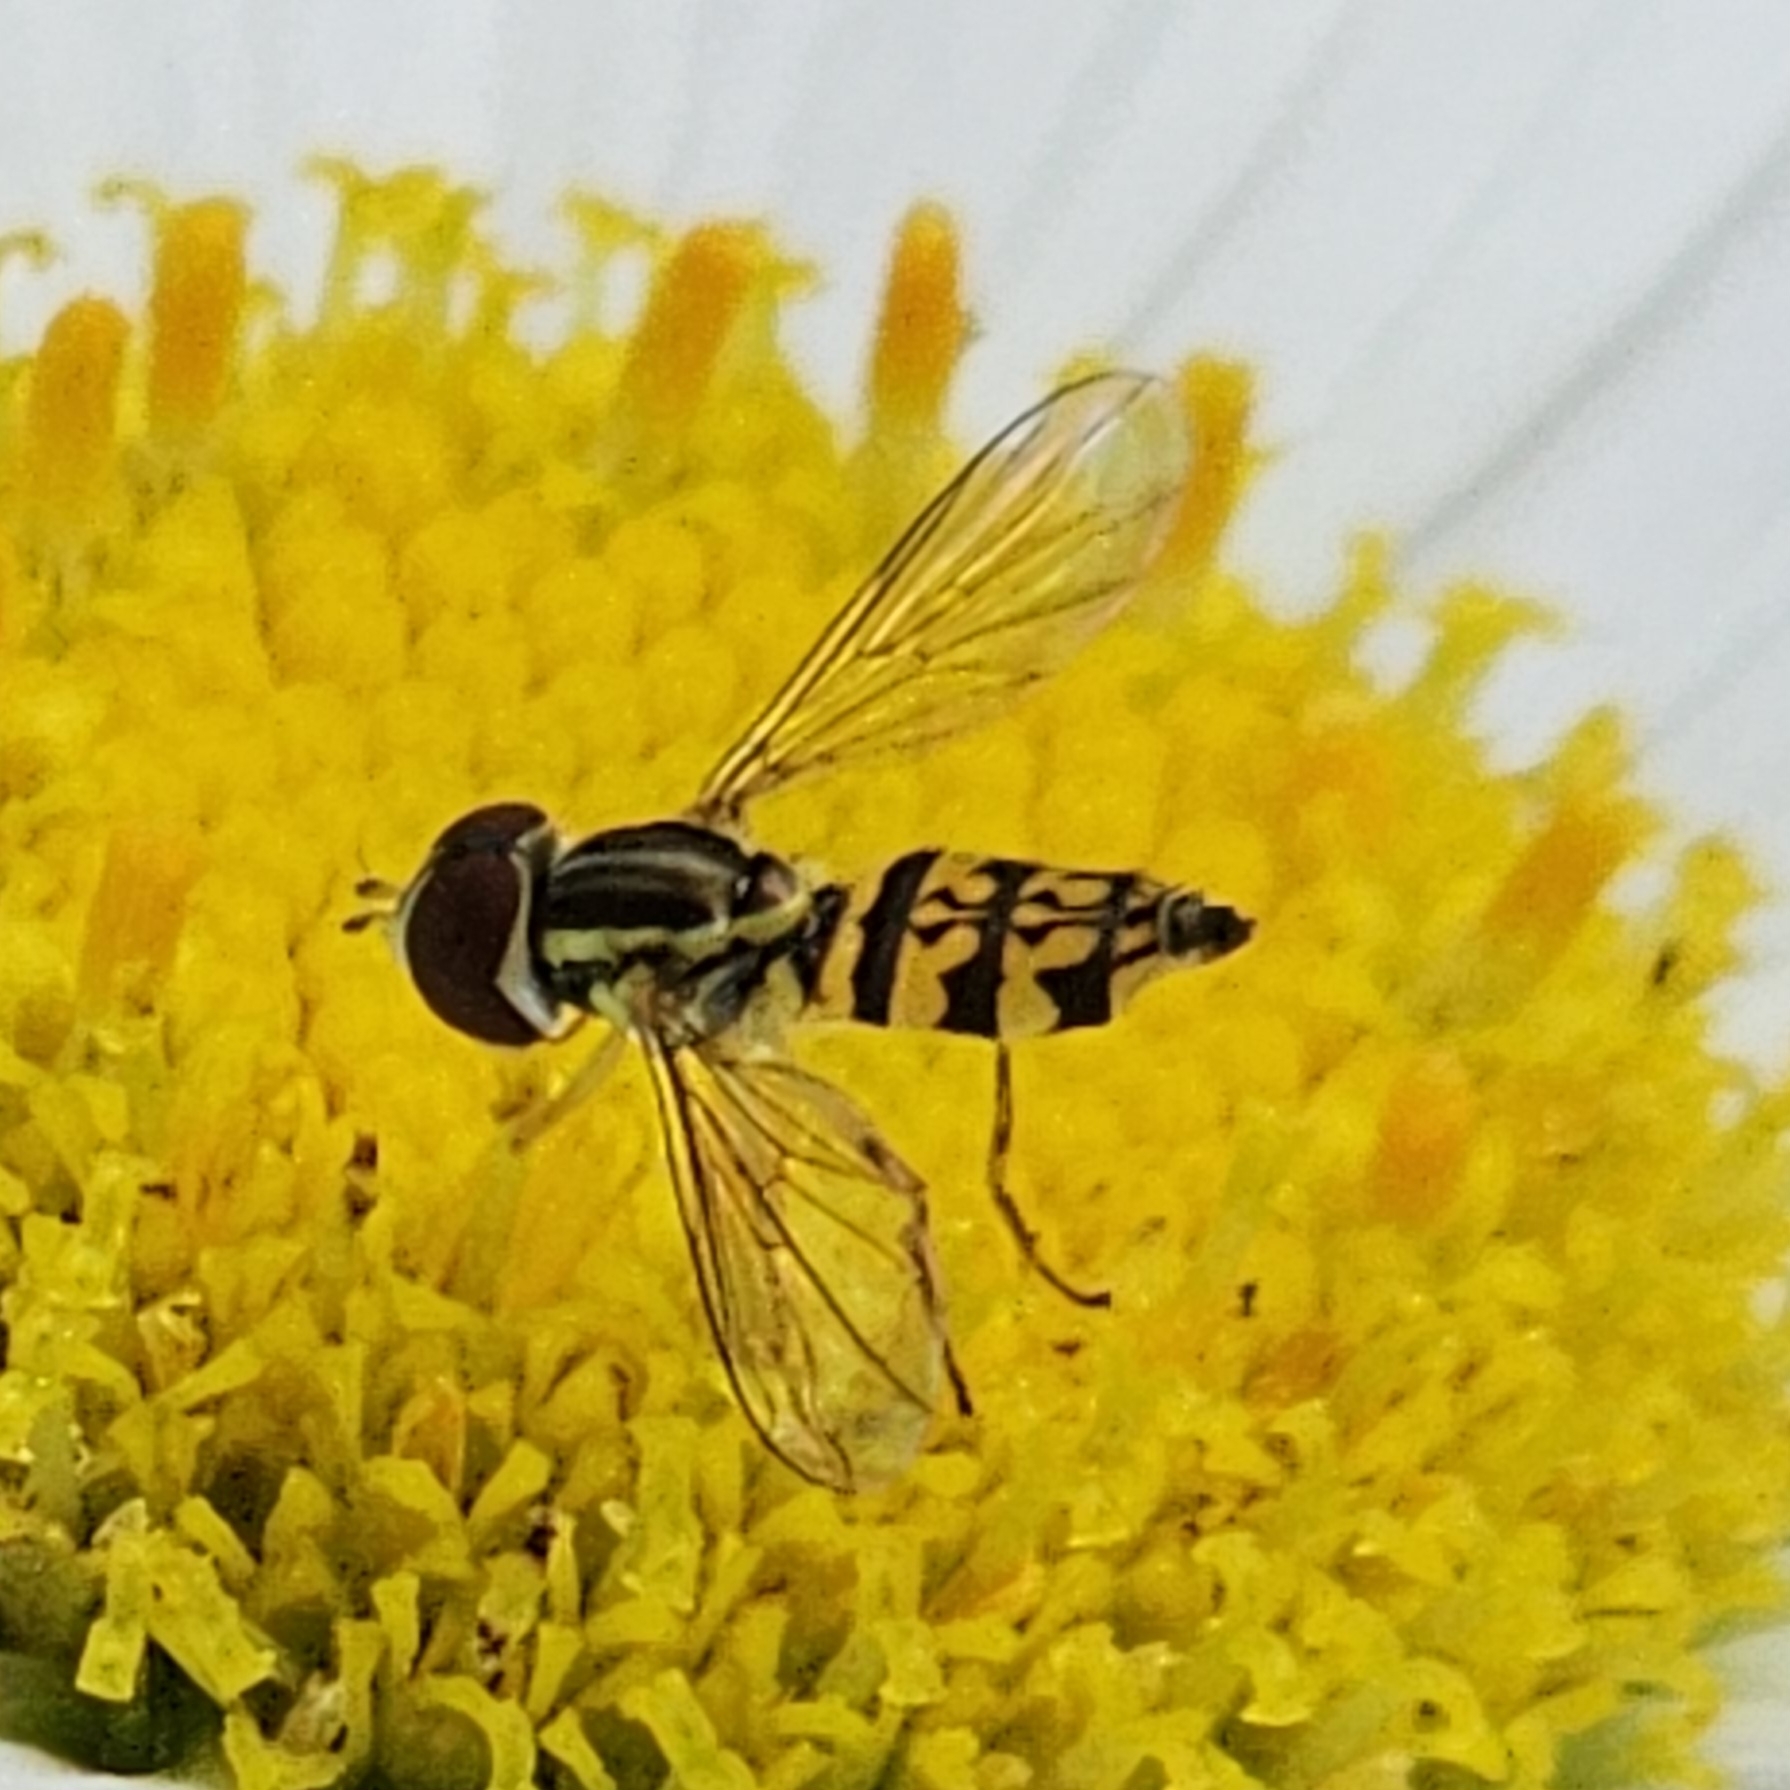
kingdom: Animalia
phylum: Arthropoda
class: Insecta
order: Diptera
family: Syrphidae
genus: Toxomerus
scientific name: Toxomerus geminatus
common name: Eastern calligrapher
